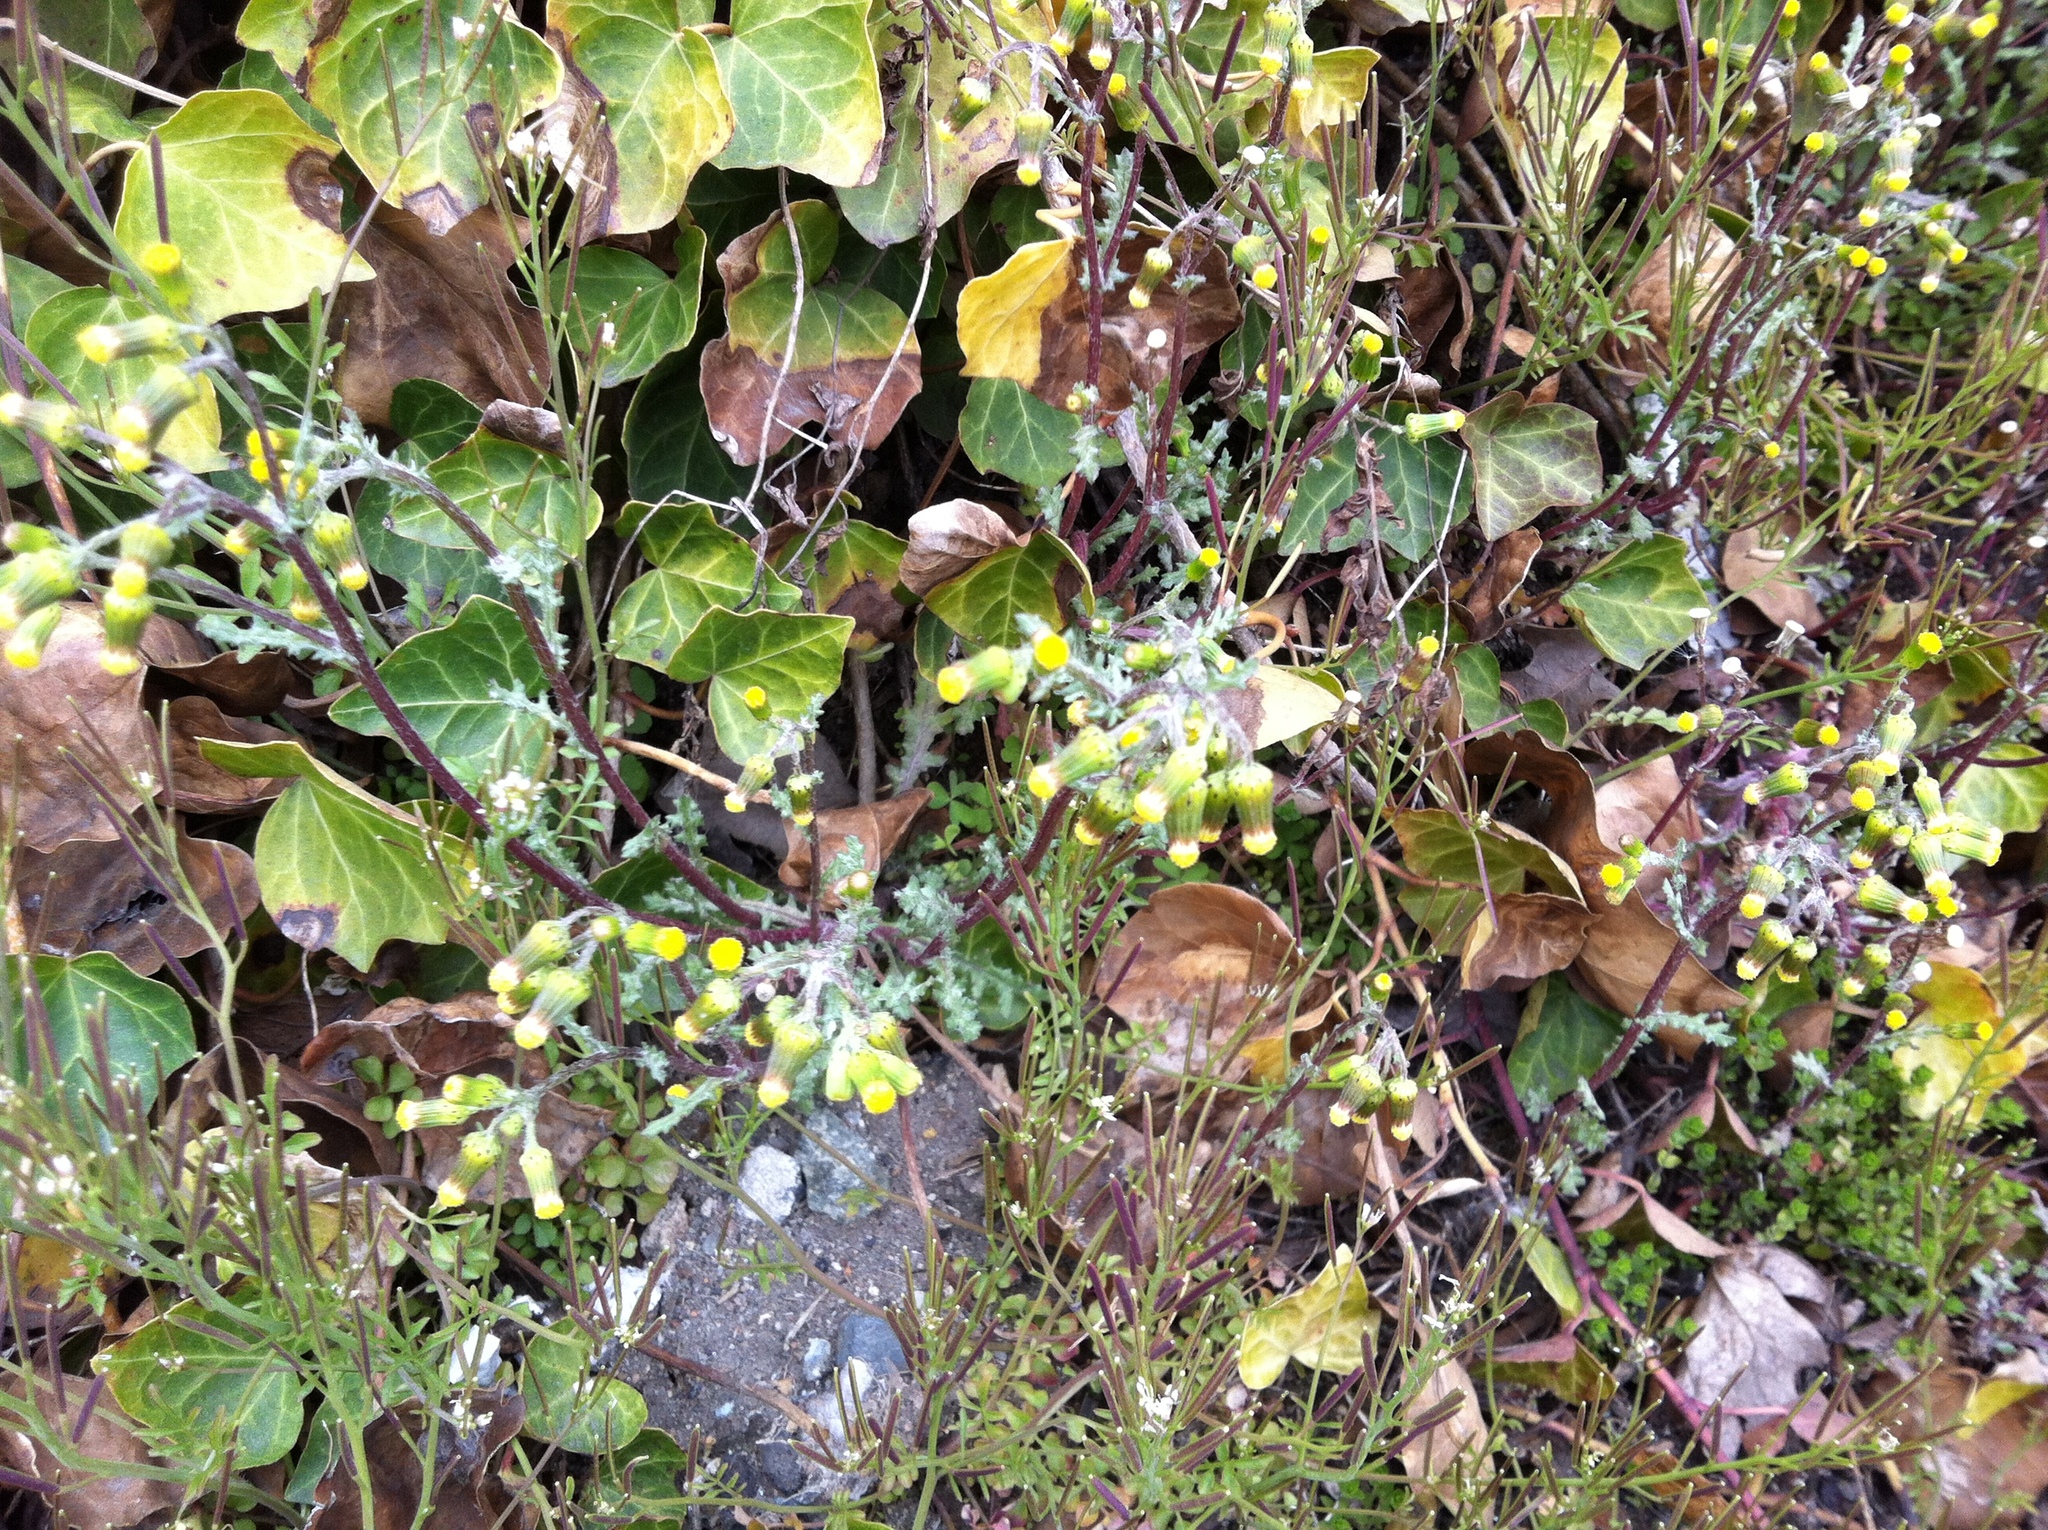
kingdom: Plantae
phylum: Tracheophyta
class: Magnoliopsida
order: Asterales
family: Asteraceae
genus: Senecio
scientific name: Senecio vulgaris
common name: Old-man-in-the-spring
